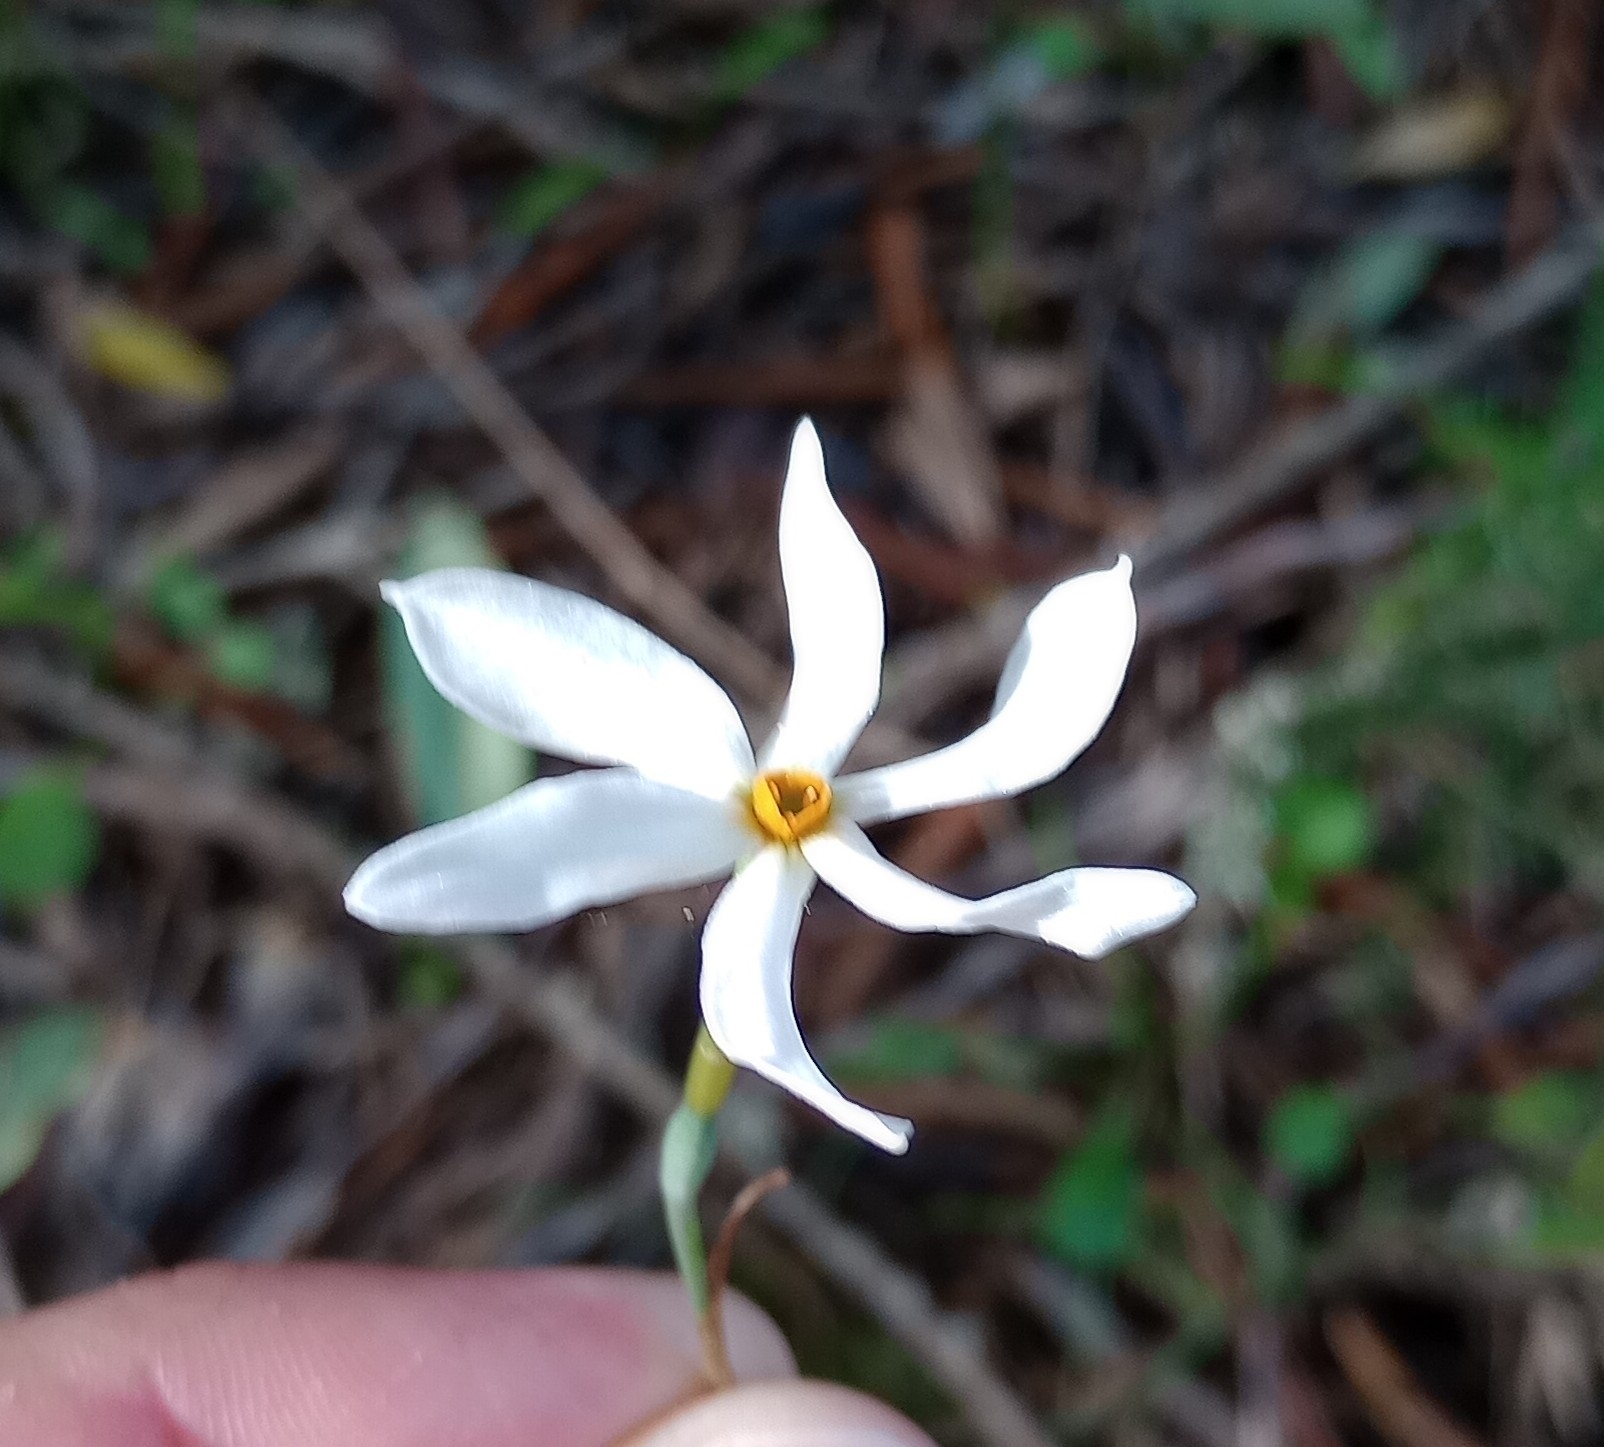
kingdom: Plantae
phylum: Tracheophyta
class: Liliopsida
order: Asparagales
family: Amaryllidaceae
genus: Narcissus
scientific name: Narcissus deficiens
